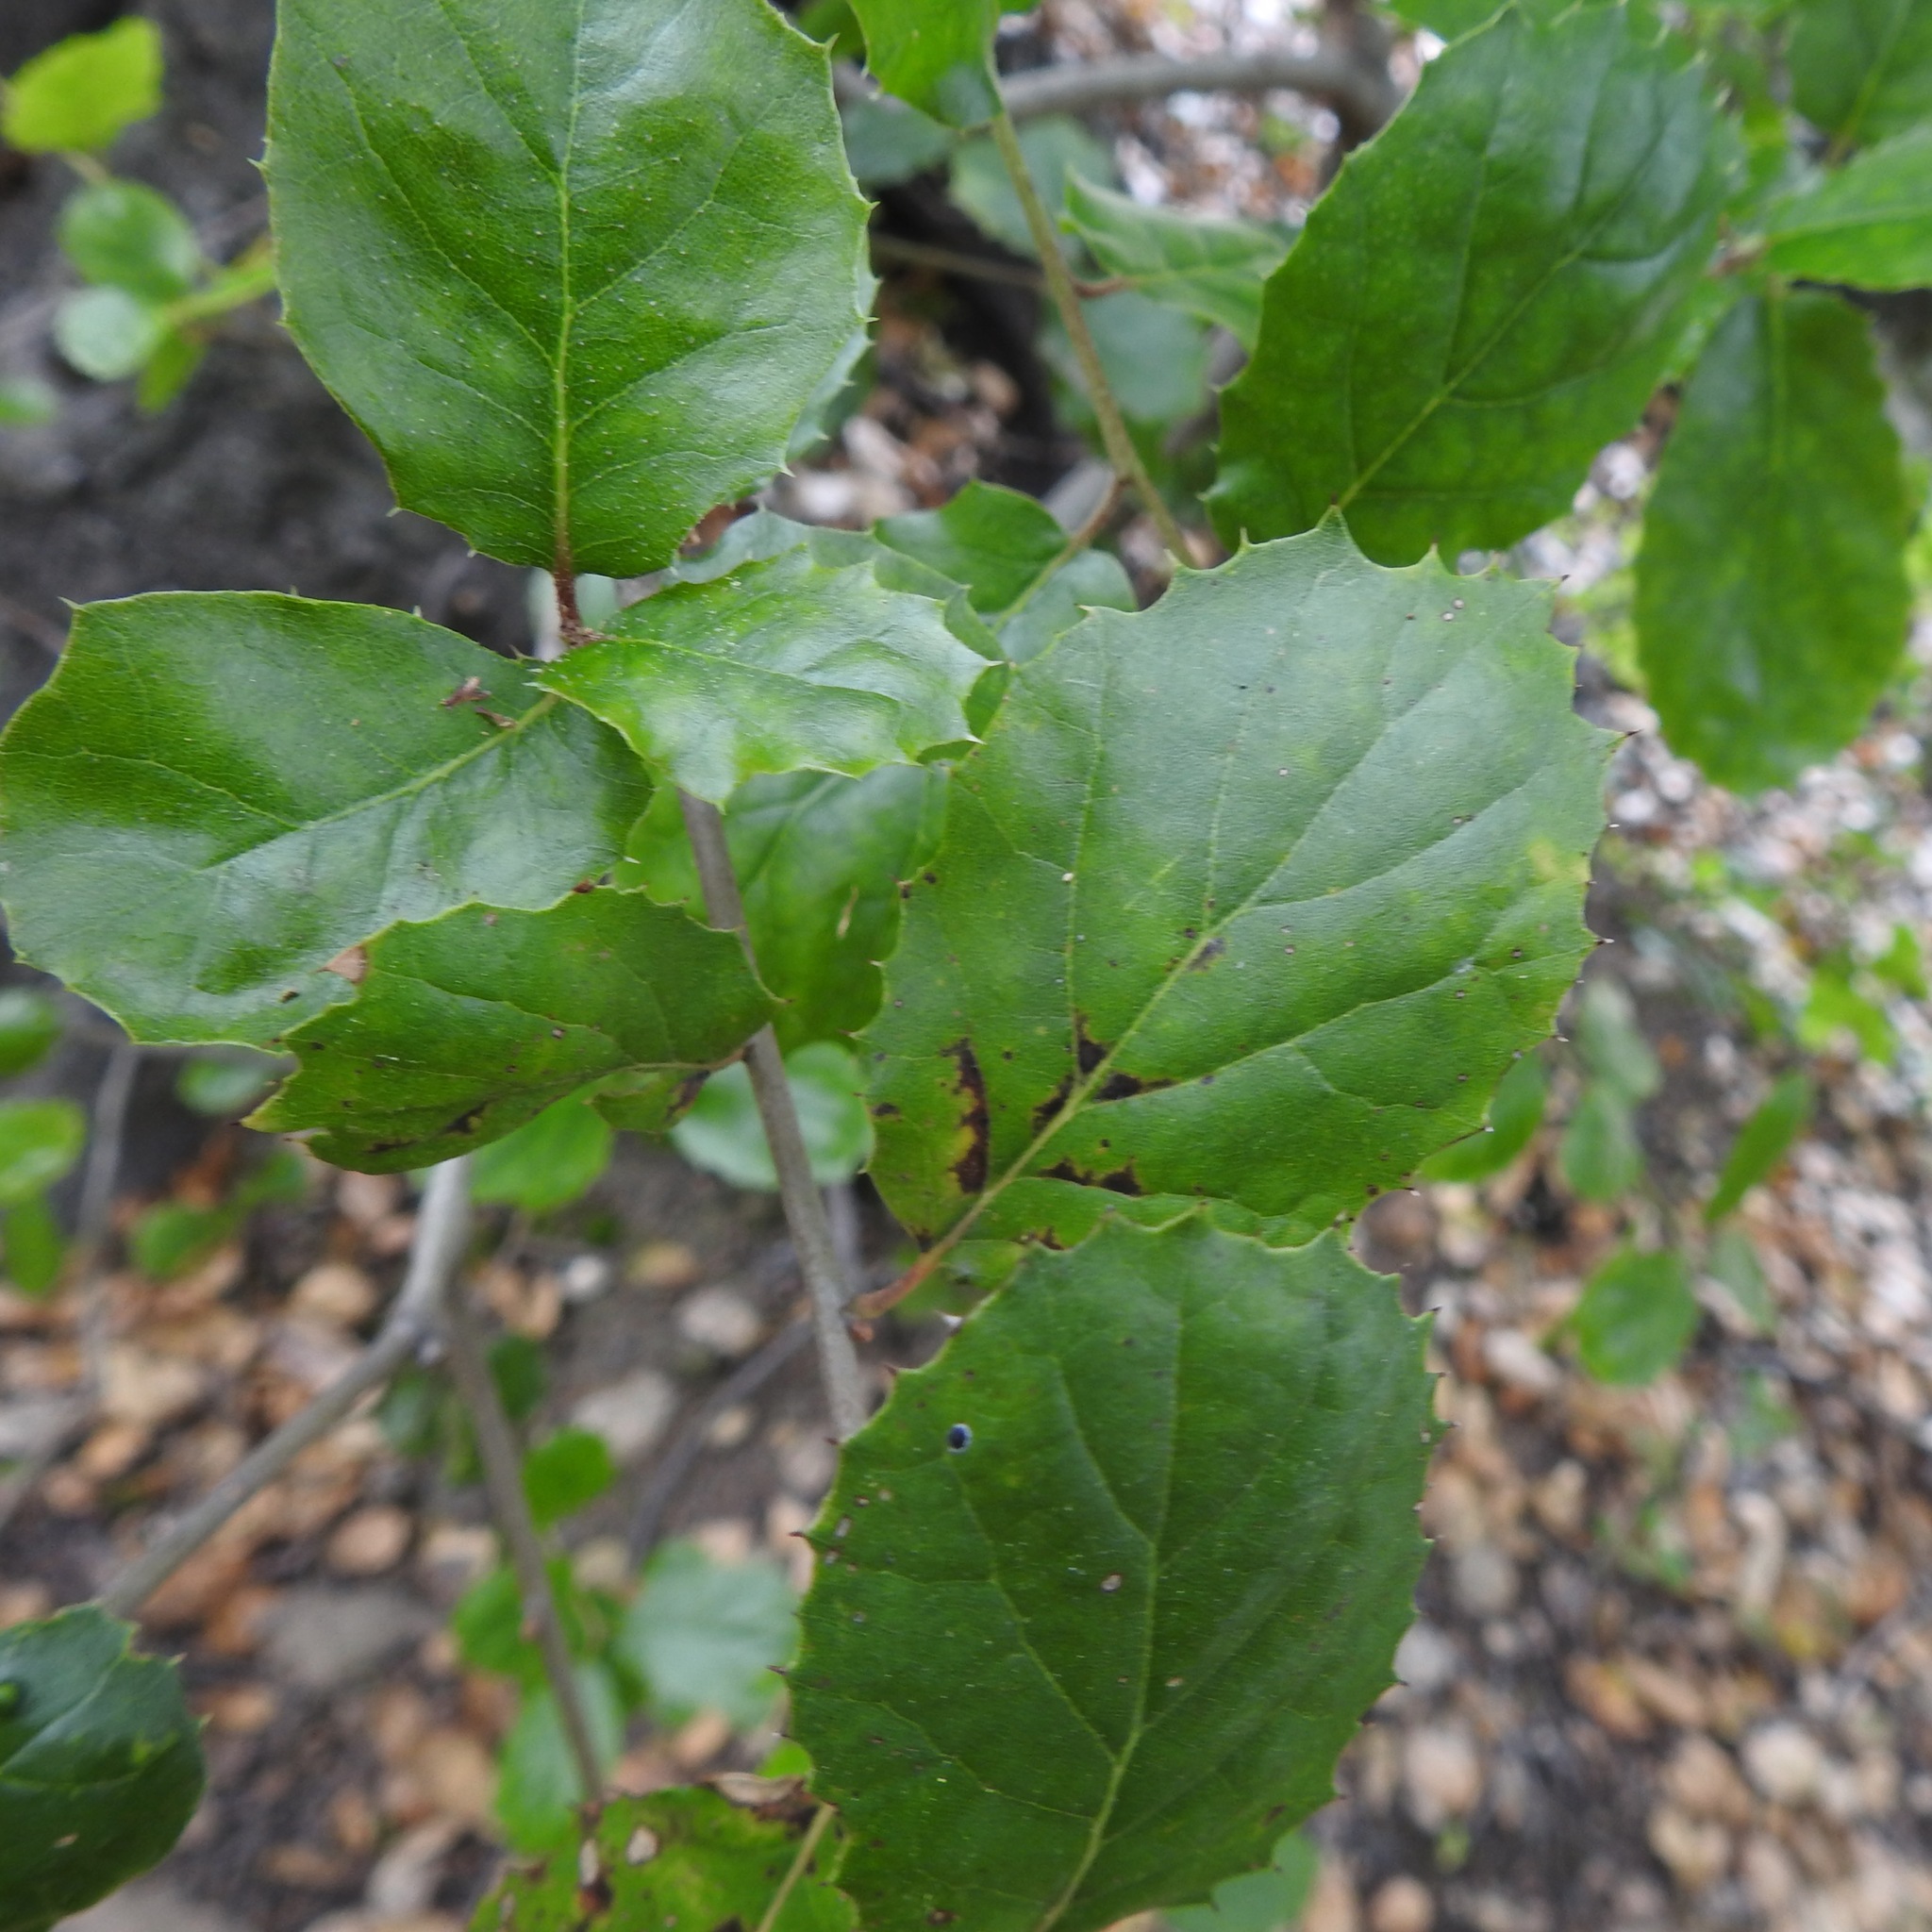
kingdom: Animalia
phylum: Arthropoda
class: Insecta
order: Hemiptera
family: Aleyrodidae
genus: Tetraleurodes
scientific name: Tetraleurodes perileuca
